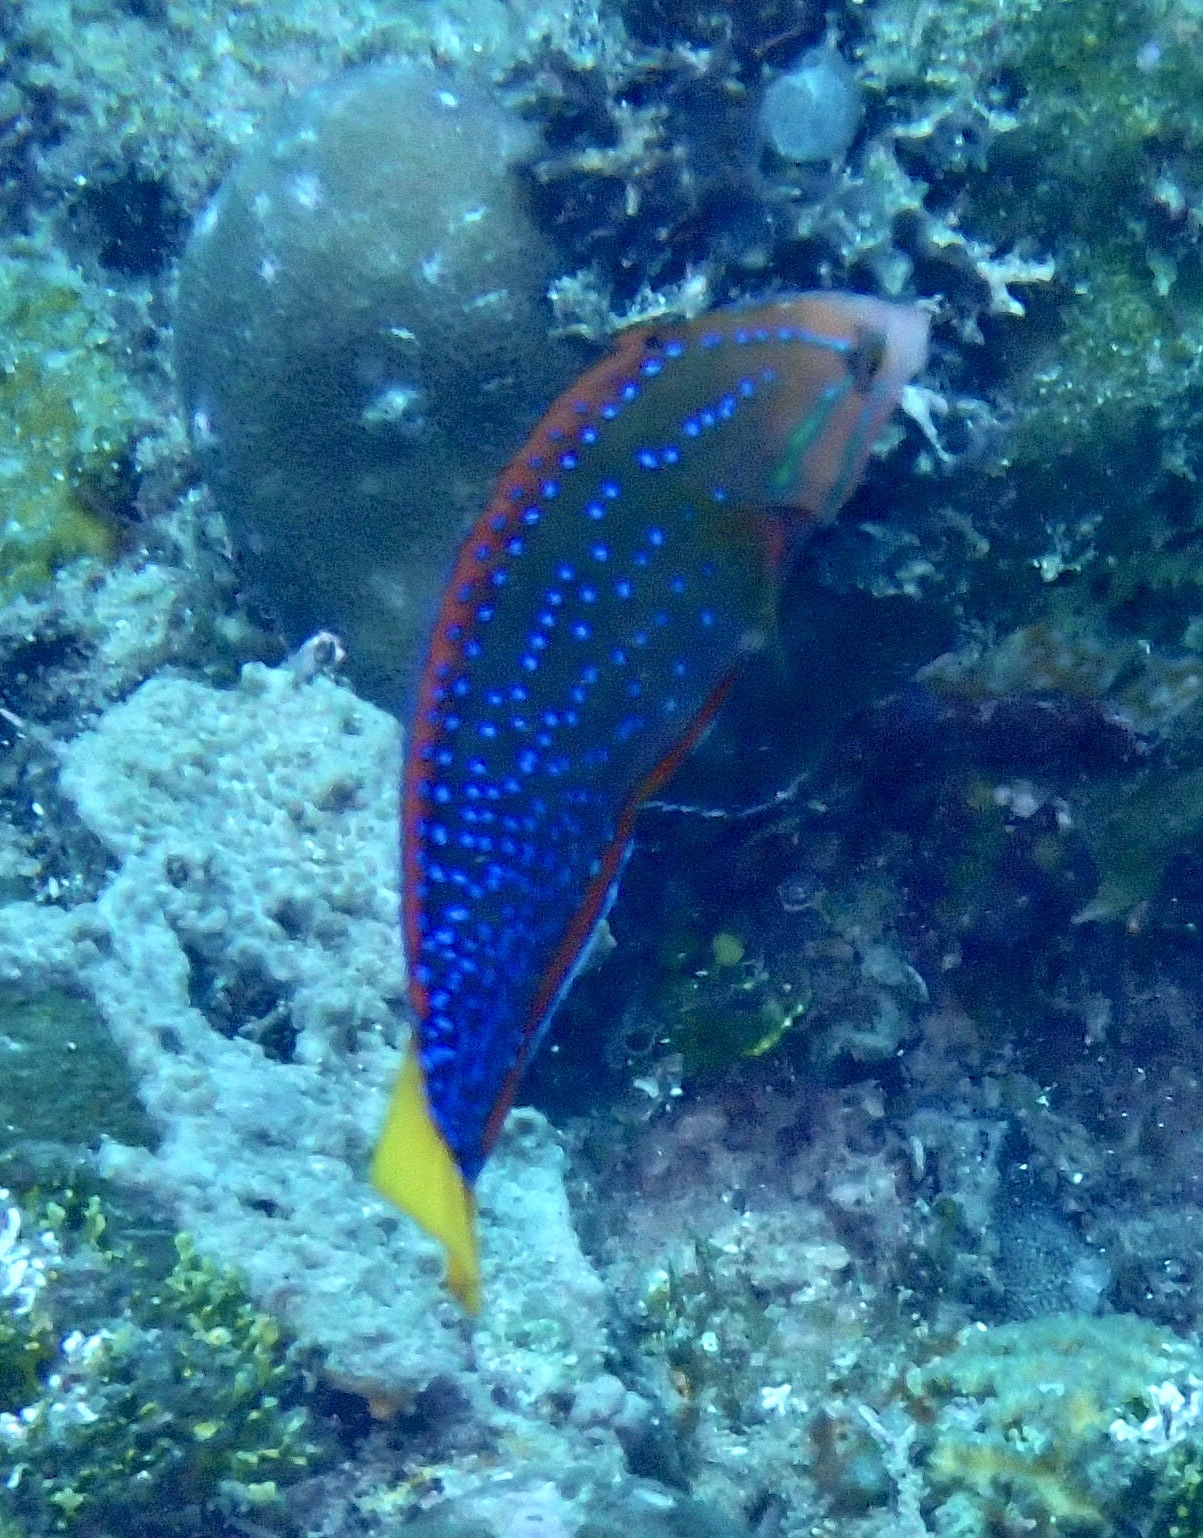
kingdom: Animalia
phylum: Chordata
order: Perciformes
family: Labridae
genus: Coris
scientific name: Coris gaimard
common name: Yellowtail coris
